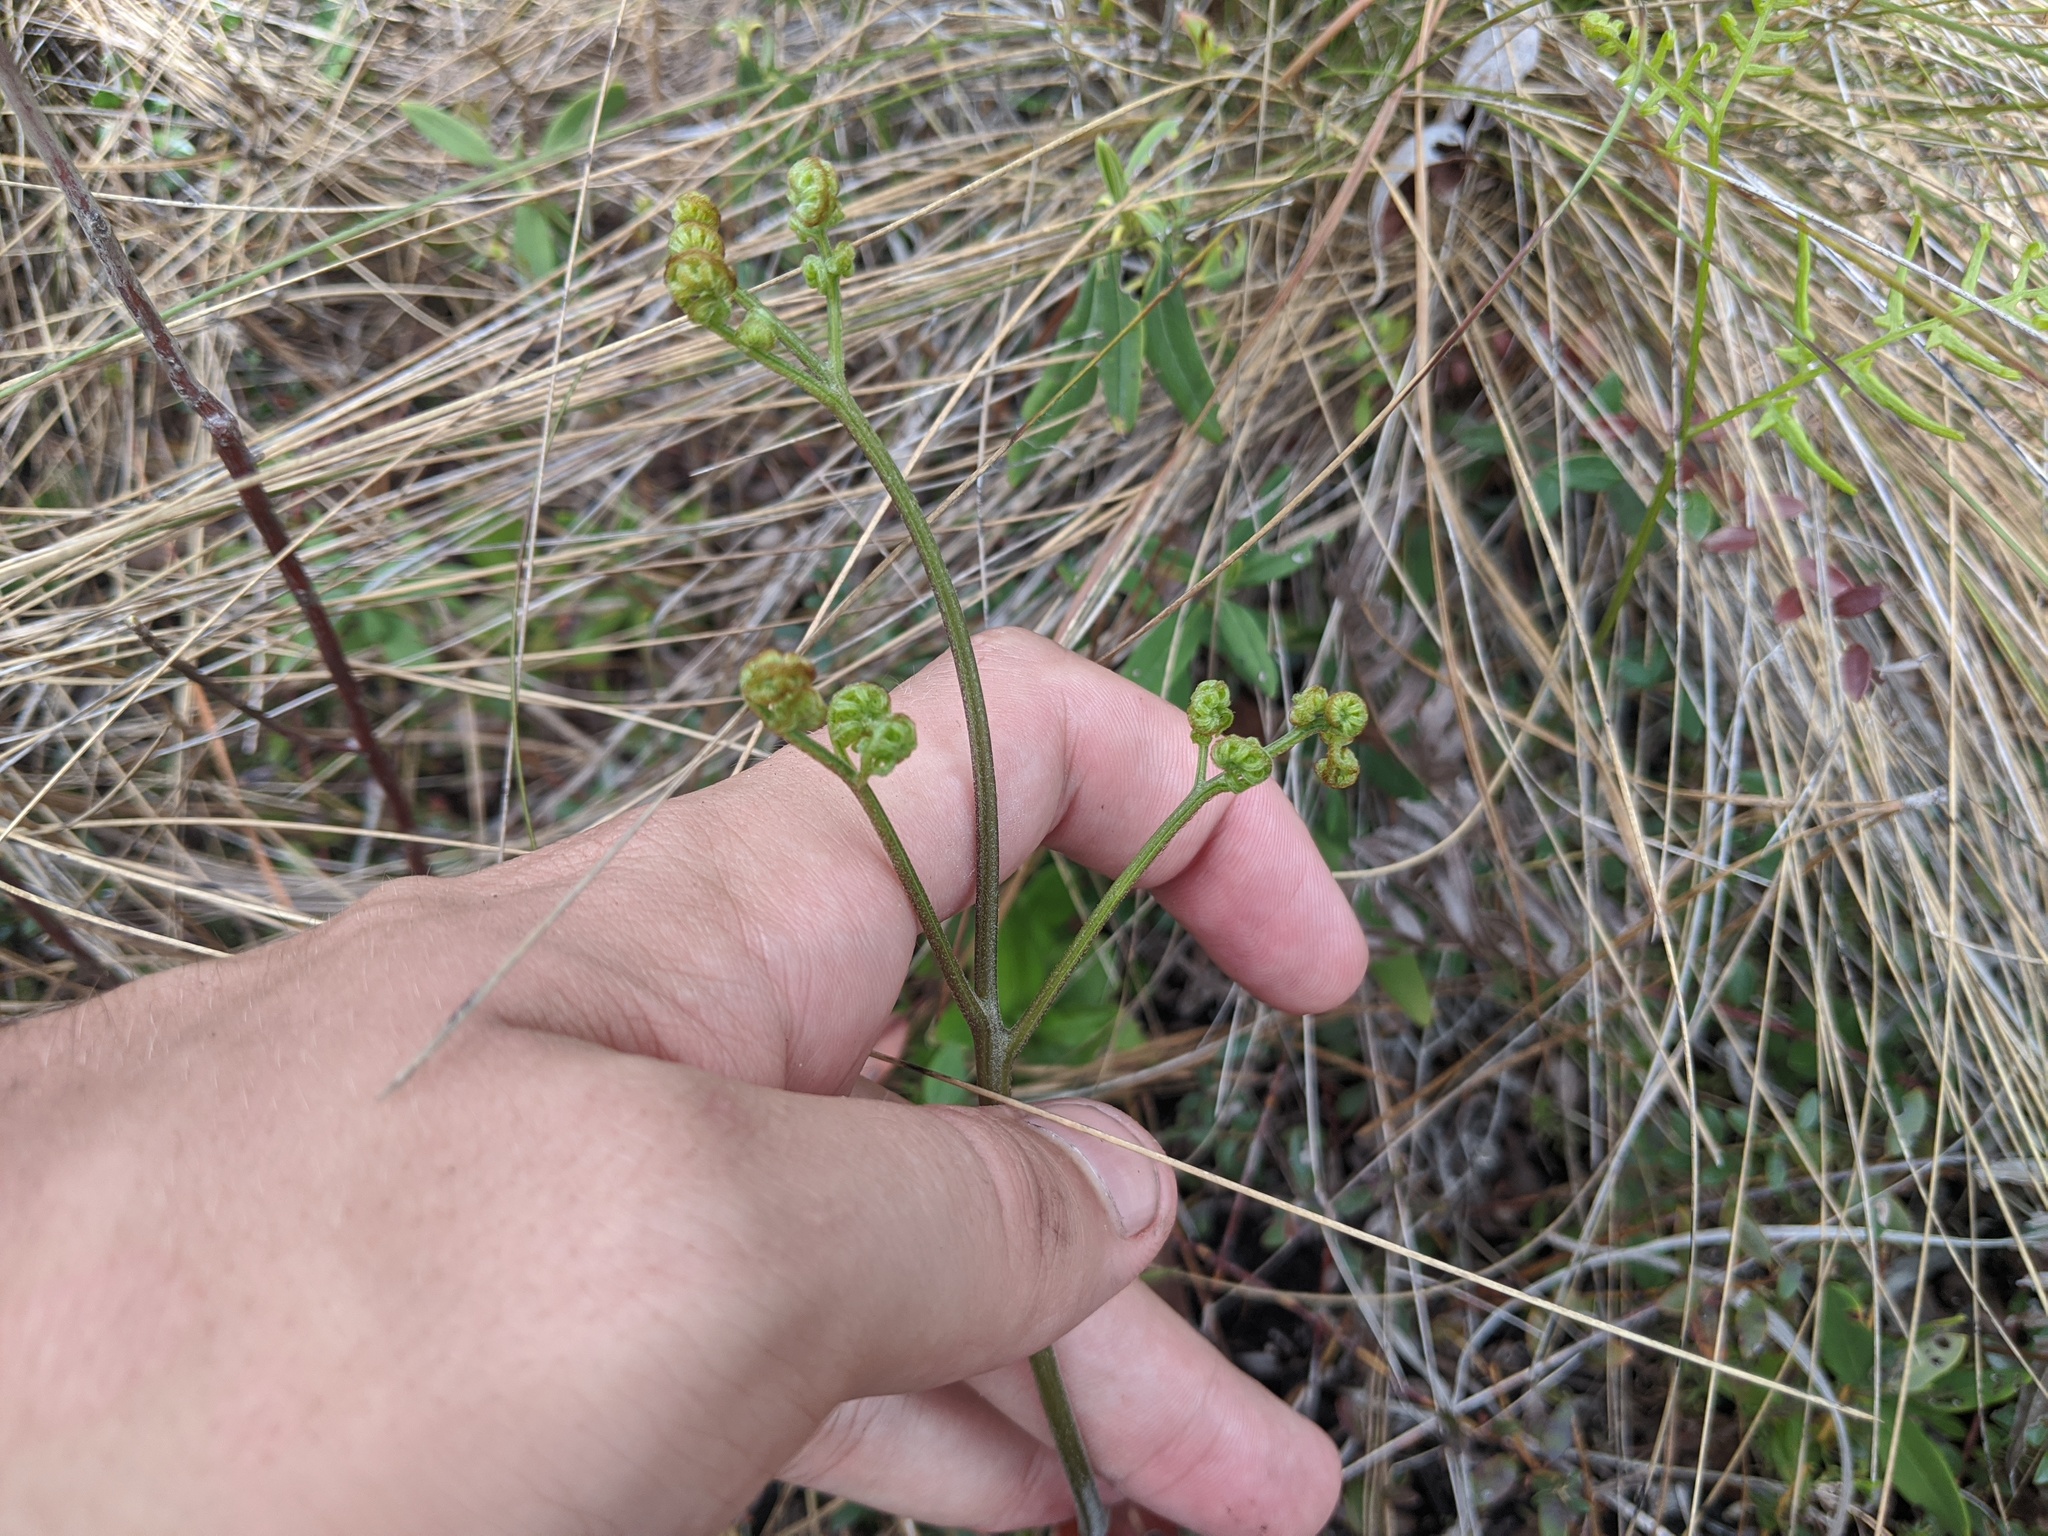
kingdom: Plantae
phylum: Tracheophyta
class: Polypodiopsida
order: Polypodiales
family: Dennstaedtiaceae
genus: Pteridium
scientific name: Pteridium aquilinum
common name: Bracken
